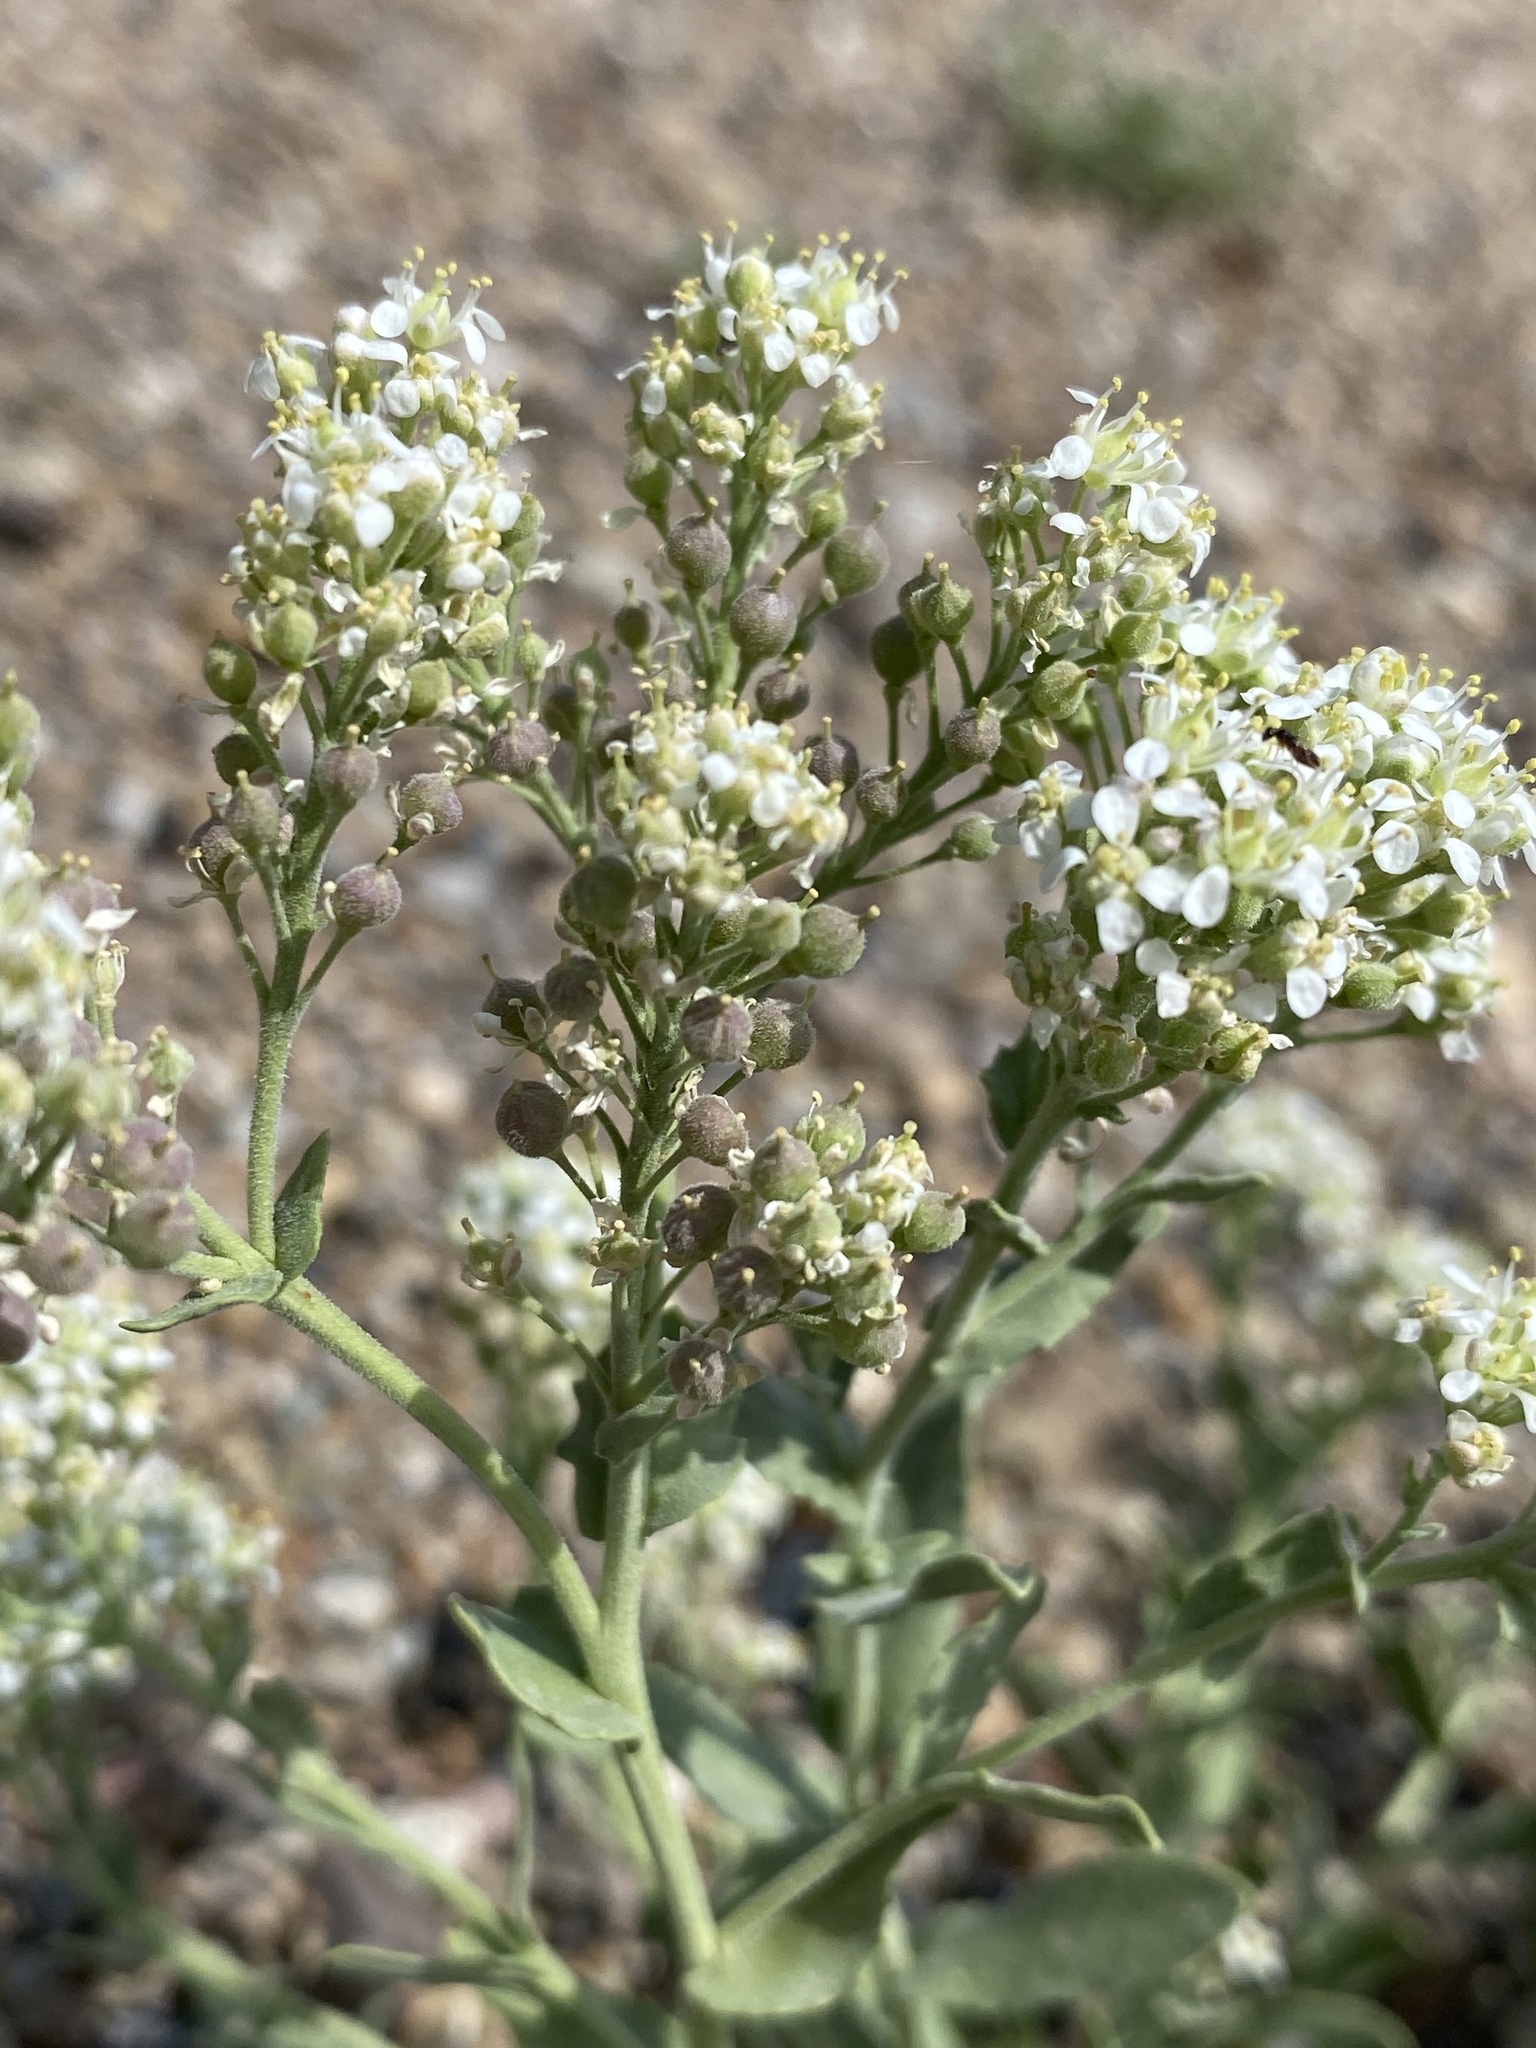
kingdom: Plantae
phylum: Tracheophyta
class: Magnoliopsida
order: Brassicales
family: Brassicaceae
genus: Lepidium
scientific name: Lepidium appelianum
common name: Hairy whitetop
